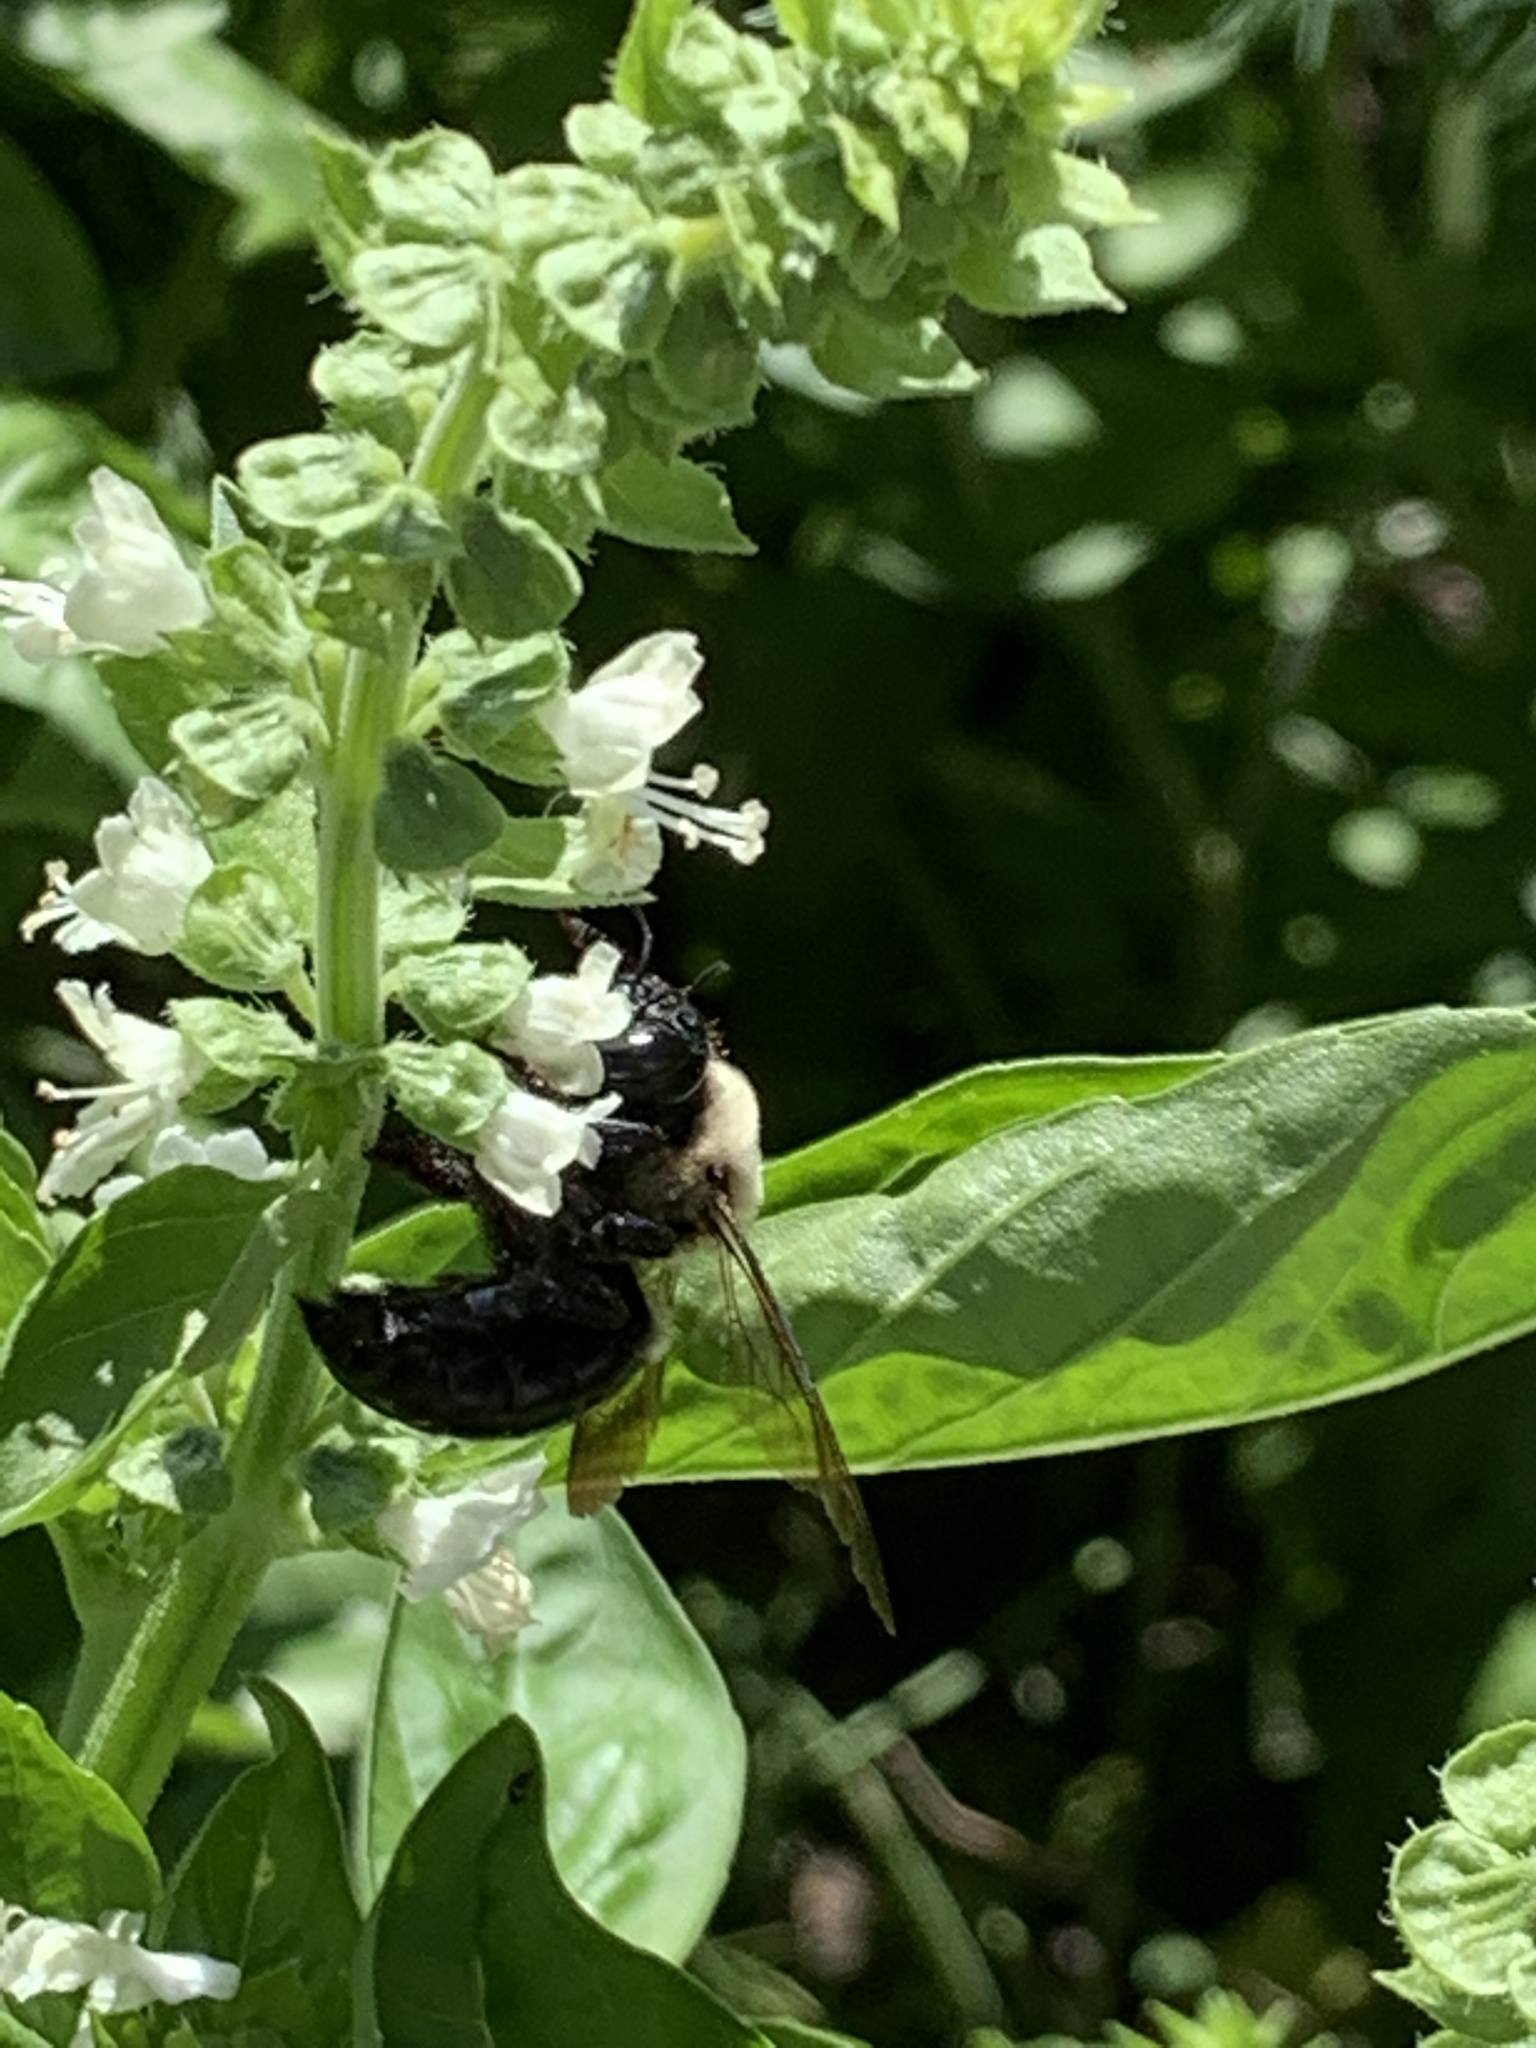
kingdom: Animalia
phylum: Arthropoda
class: Insecta
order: Hymenoptera
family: Apidae
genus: Xylocopa
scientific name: Xylocopa virginica
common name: Carpenter bee
